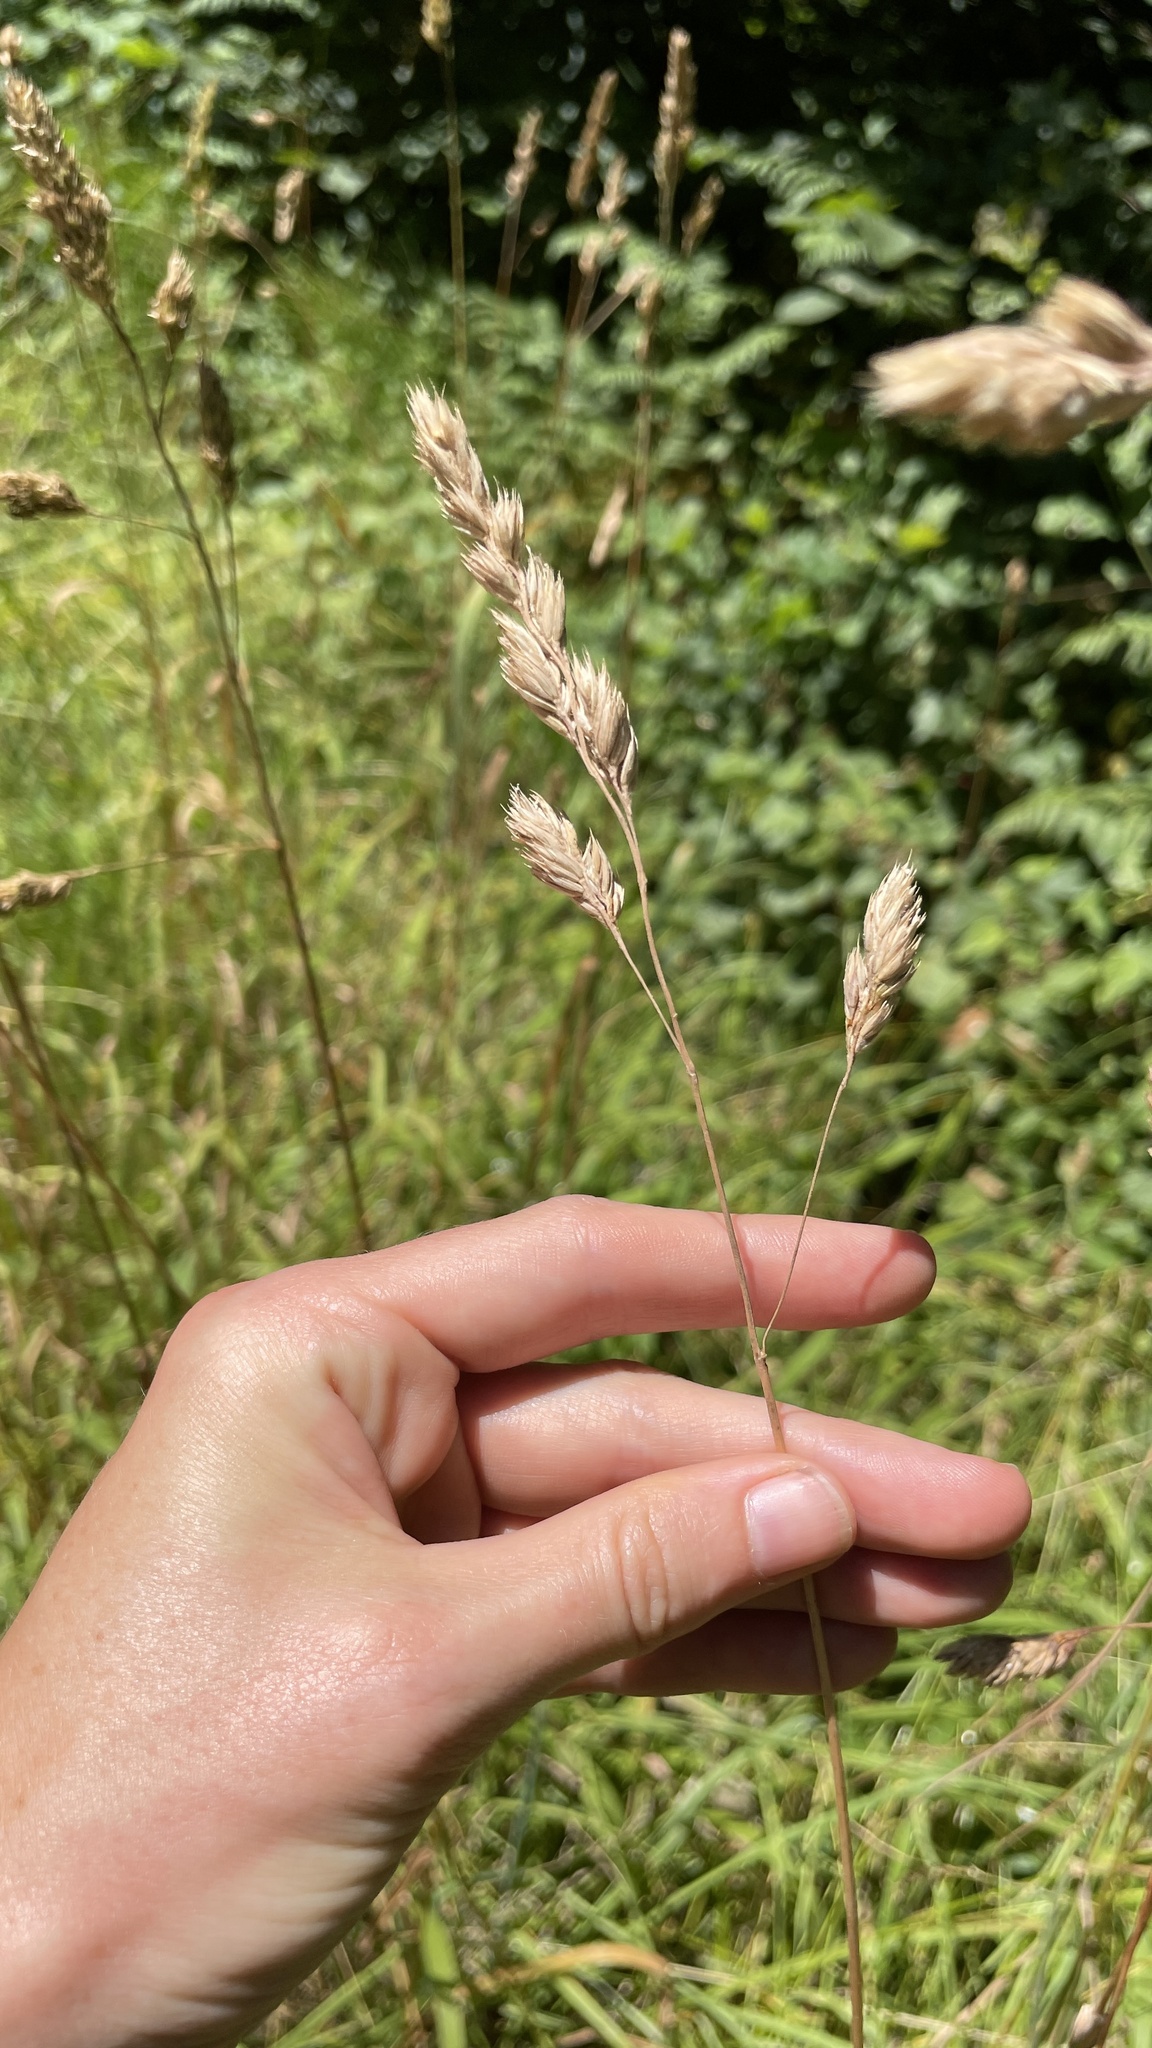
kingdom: Plantae
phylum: Tracheophyta
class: Liliopsida
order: Poales
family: Poaceae
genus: Dactylis
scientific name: Dactylis glomerata
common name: Orchardgrass
